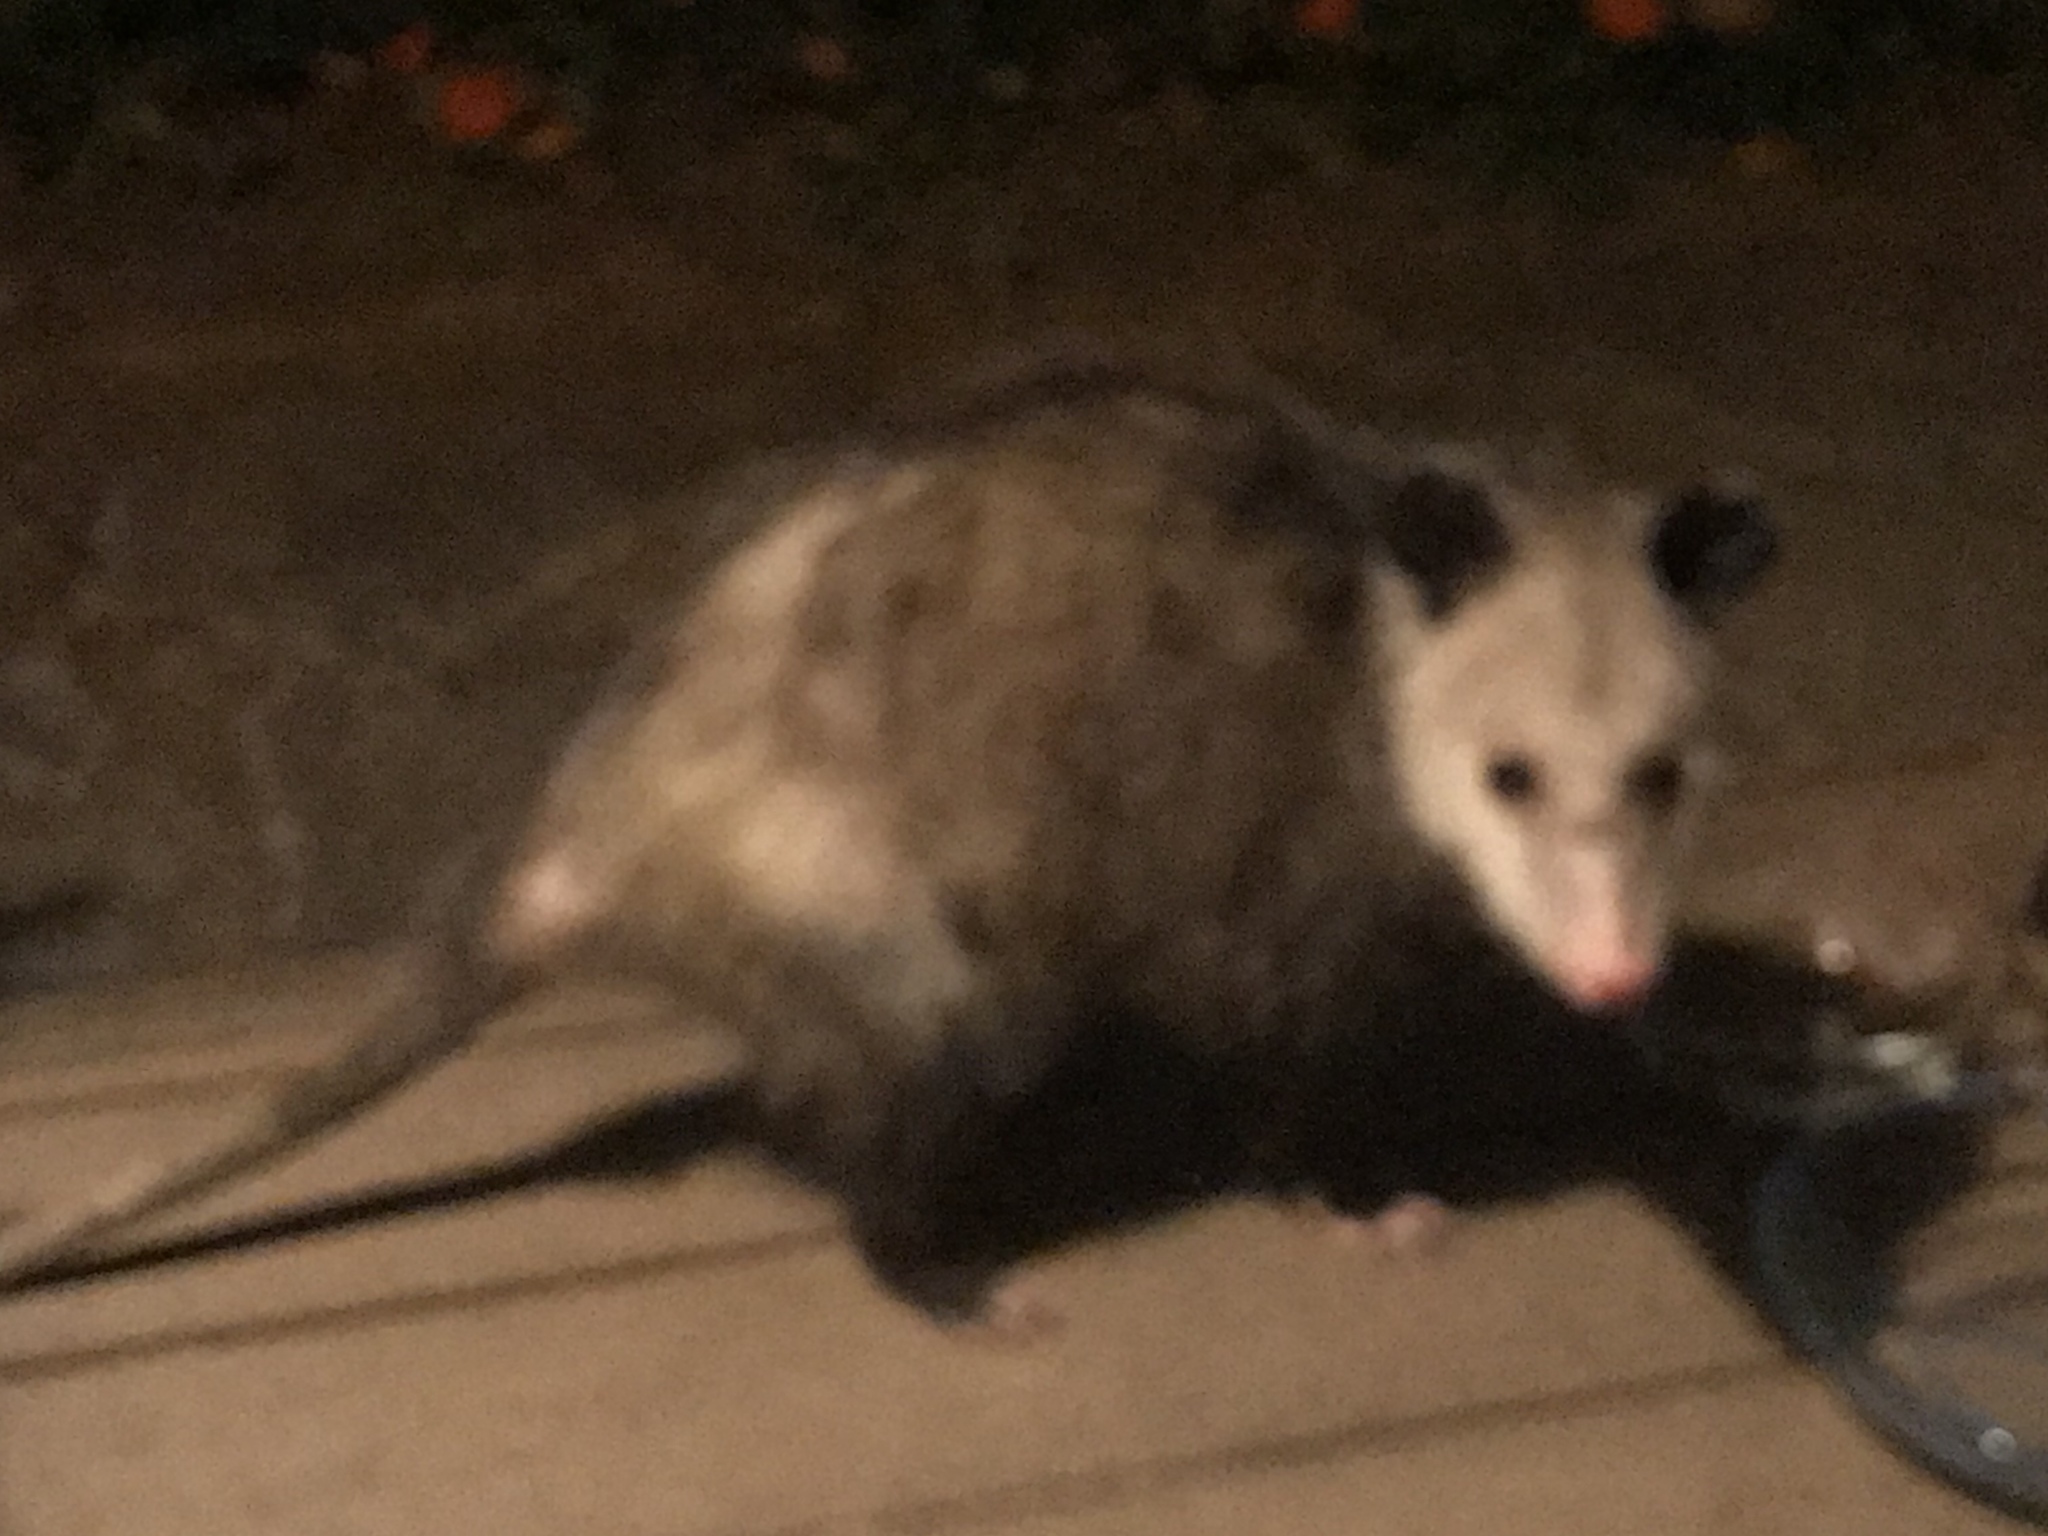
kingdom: Animalia
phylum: Chordata
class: Mammalia
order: Didelphimorphia
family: Didelphidae
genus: Didelphis
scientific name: Didelphis virginiana
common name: Virginia opossum
